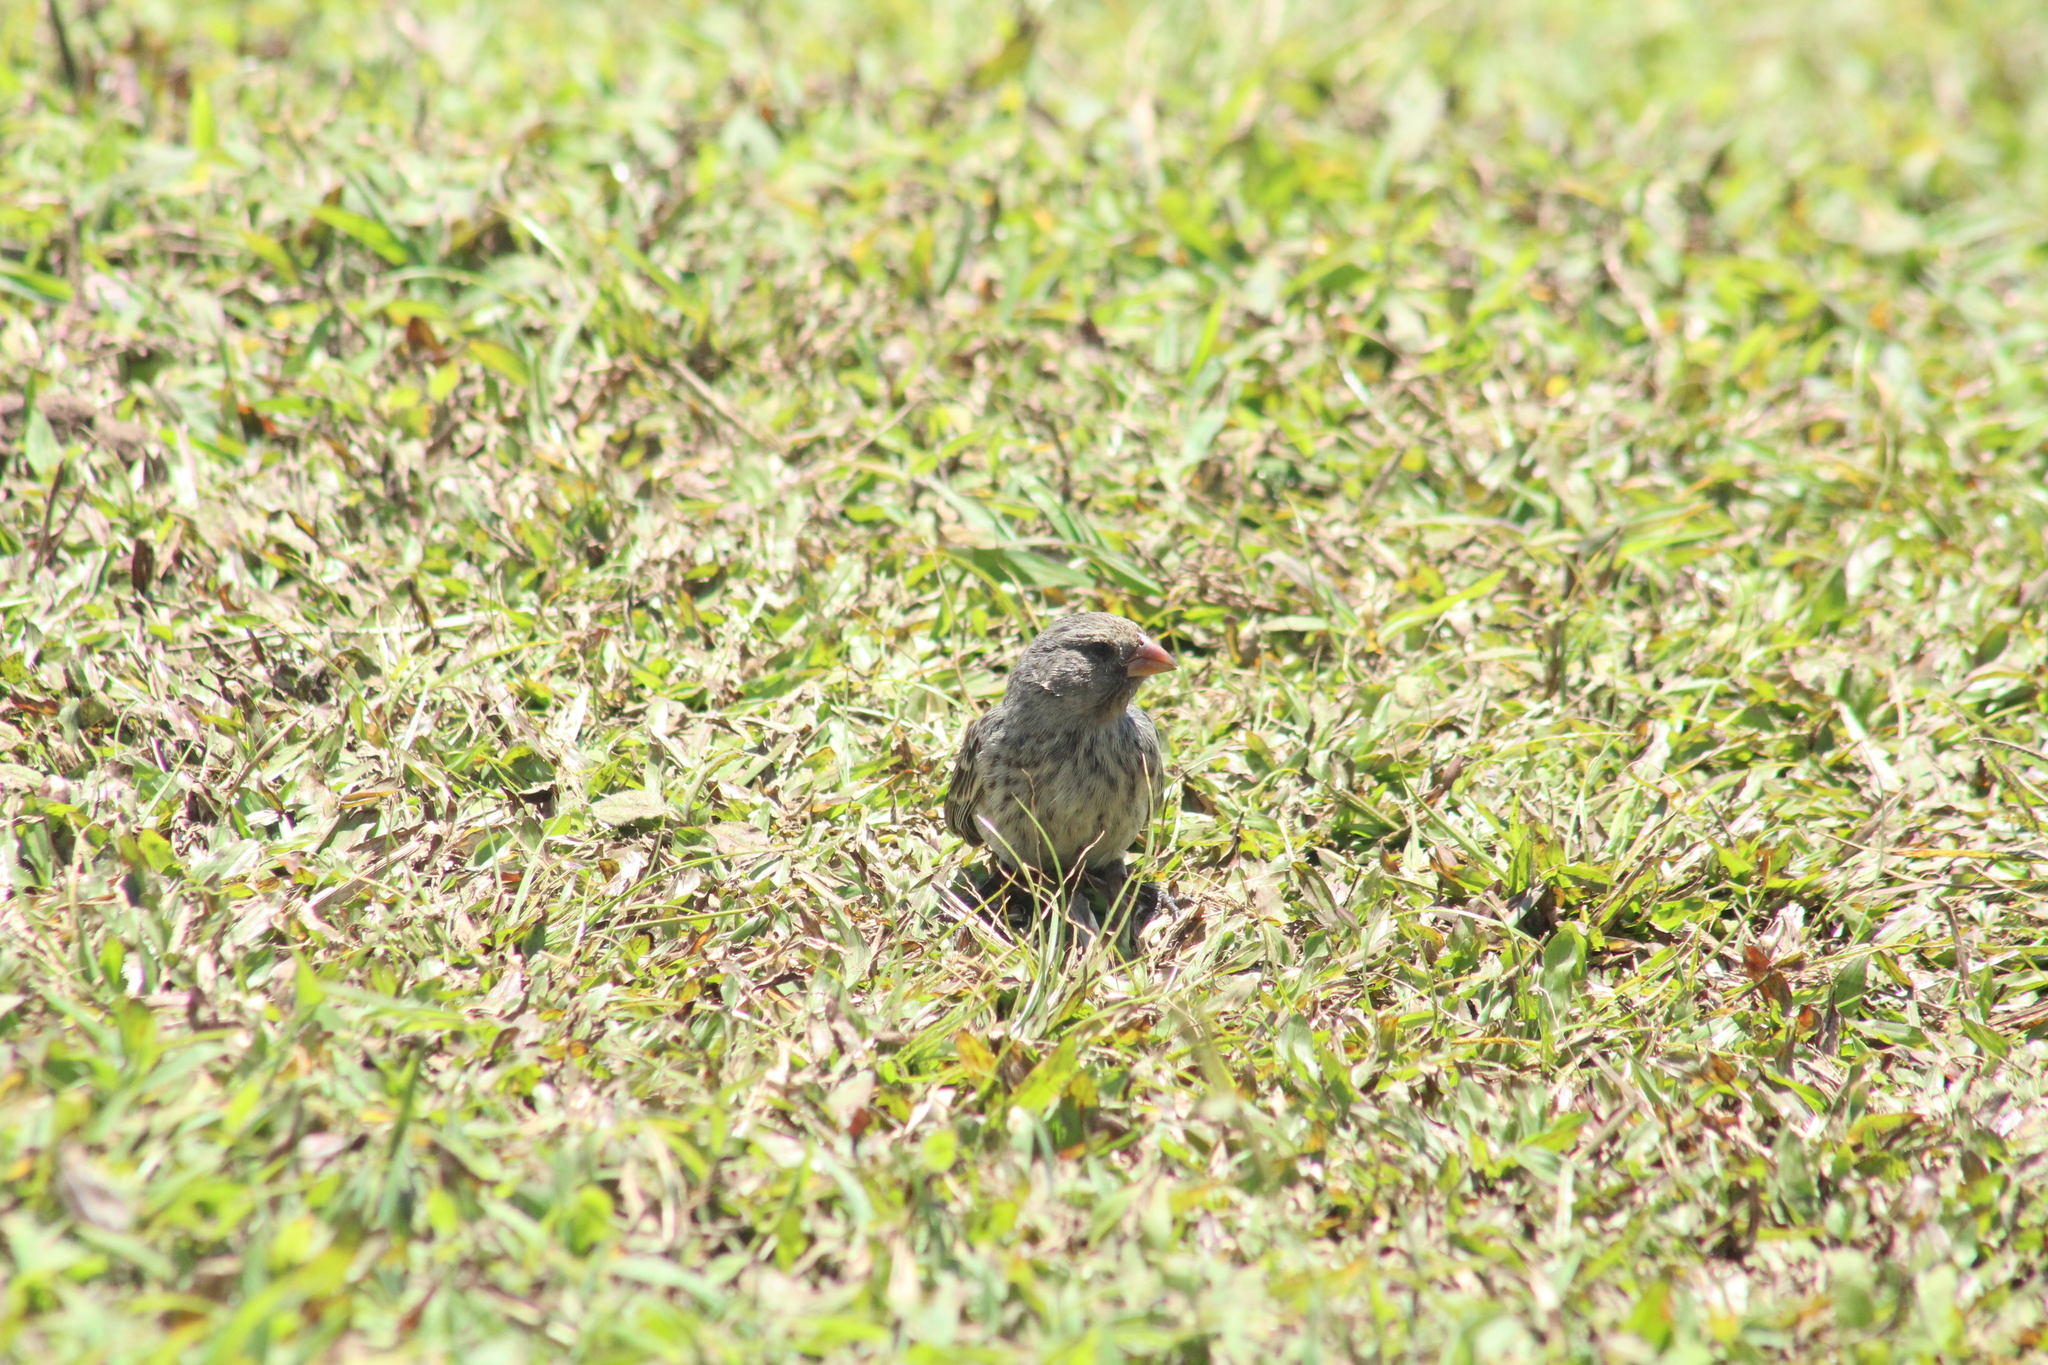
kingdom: Animalia
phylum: Chordata
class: Aves
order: Passeriformes
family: Thraupidae
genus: Geospiza
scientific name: Geospiza fuliginosa
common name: Small ground finch
